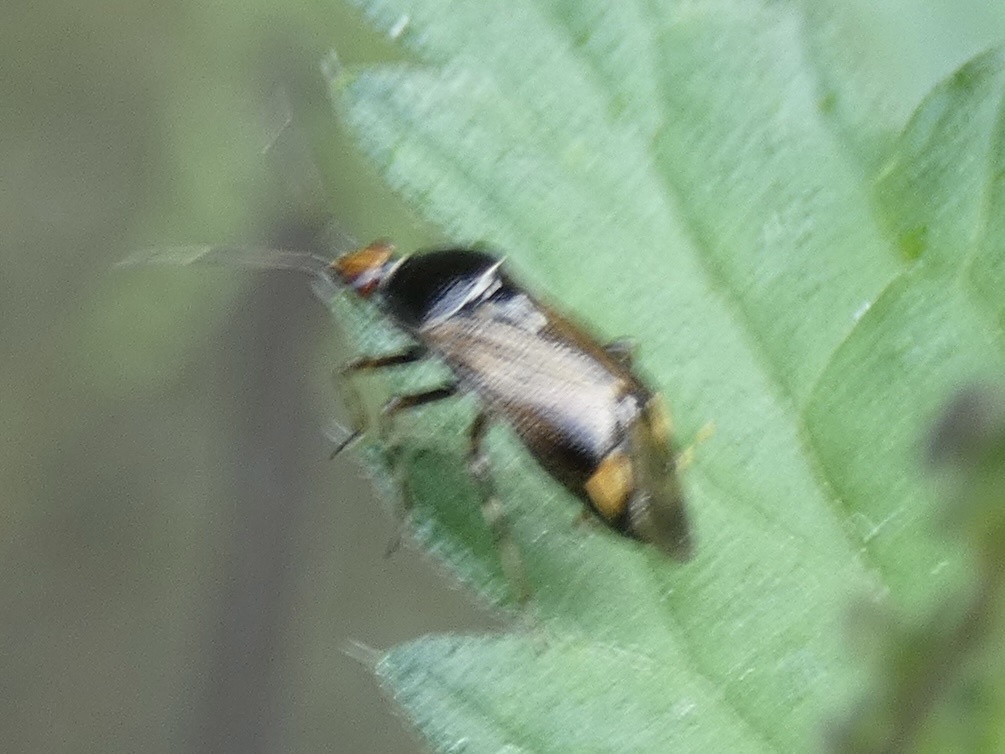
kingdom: Animalia
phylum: Arthropoda
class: Insecta
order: Hemiptera
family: Miridae
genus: Deraeocoris
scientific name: Deraeocoris flavilinea
